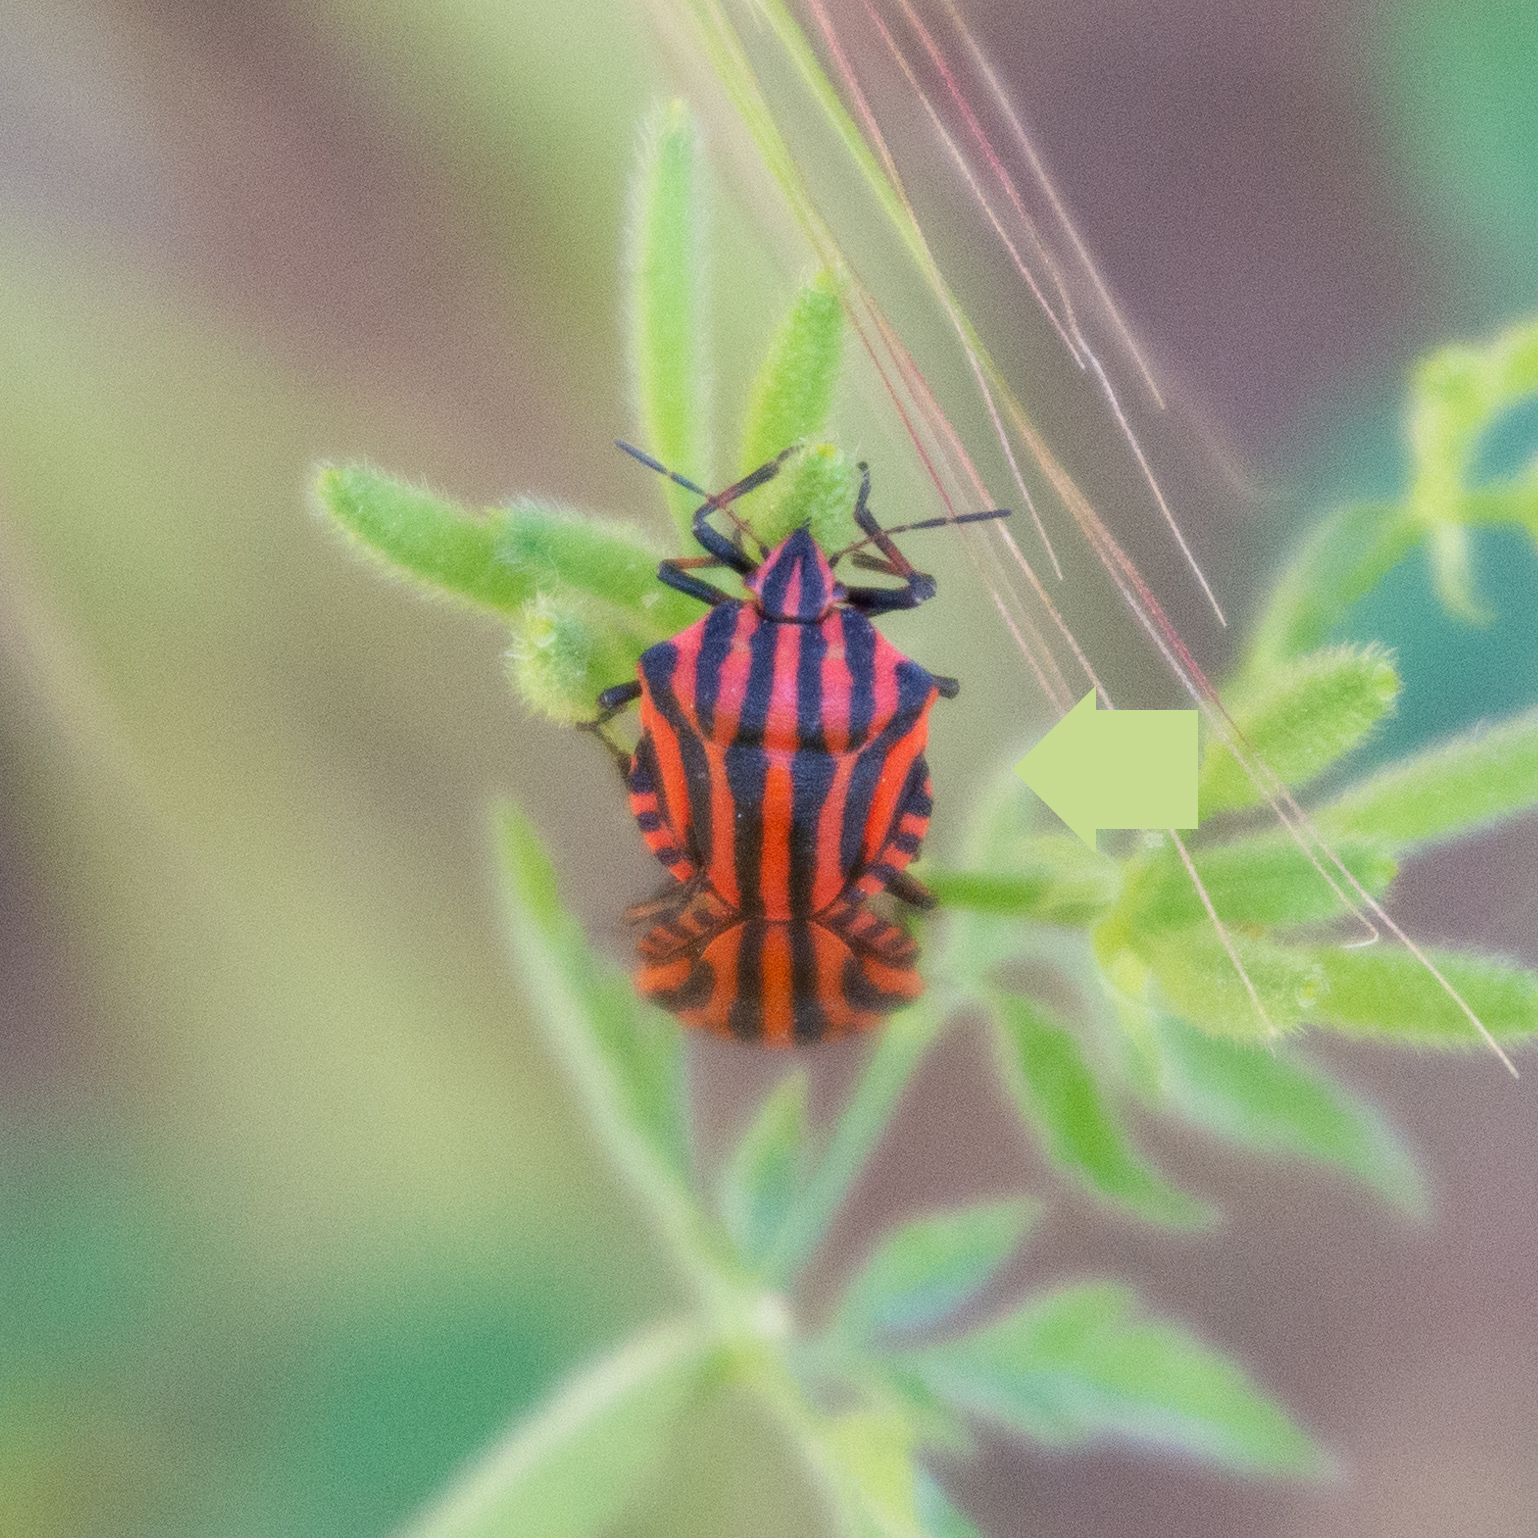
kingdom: Animalia
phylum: Arthropoda
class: Insecta
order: Hemiptera
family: Pentatomidae
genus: Graphosoma
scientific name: Graphosoma italicum
